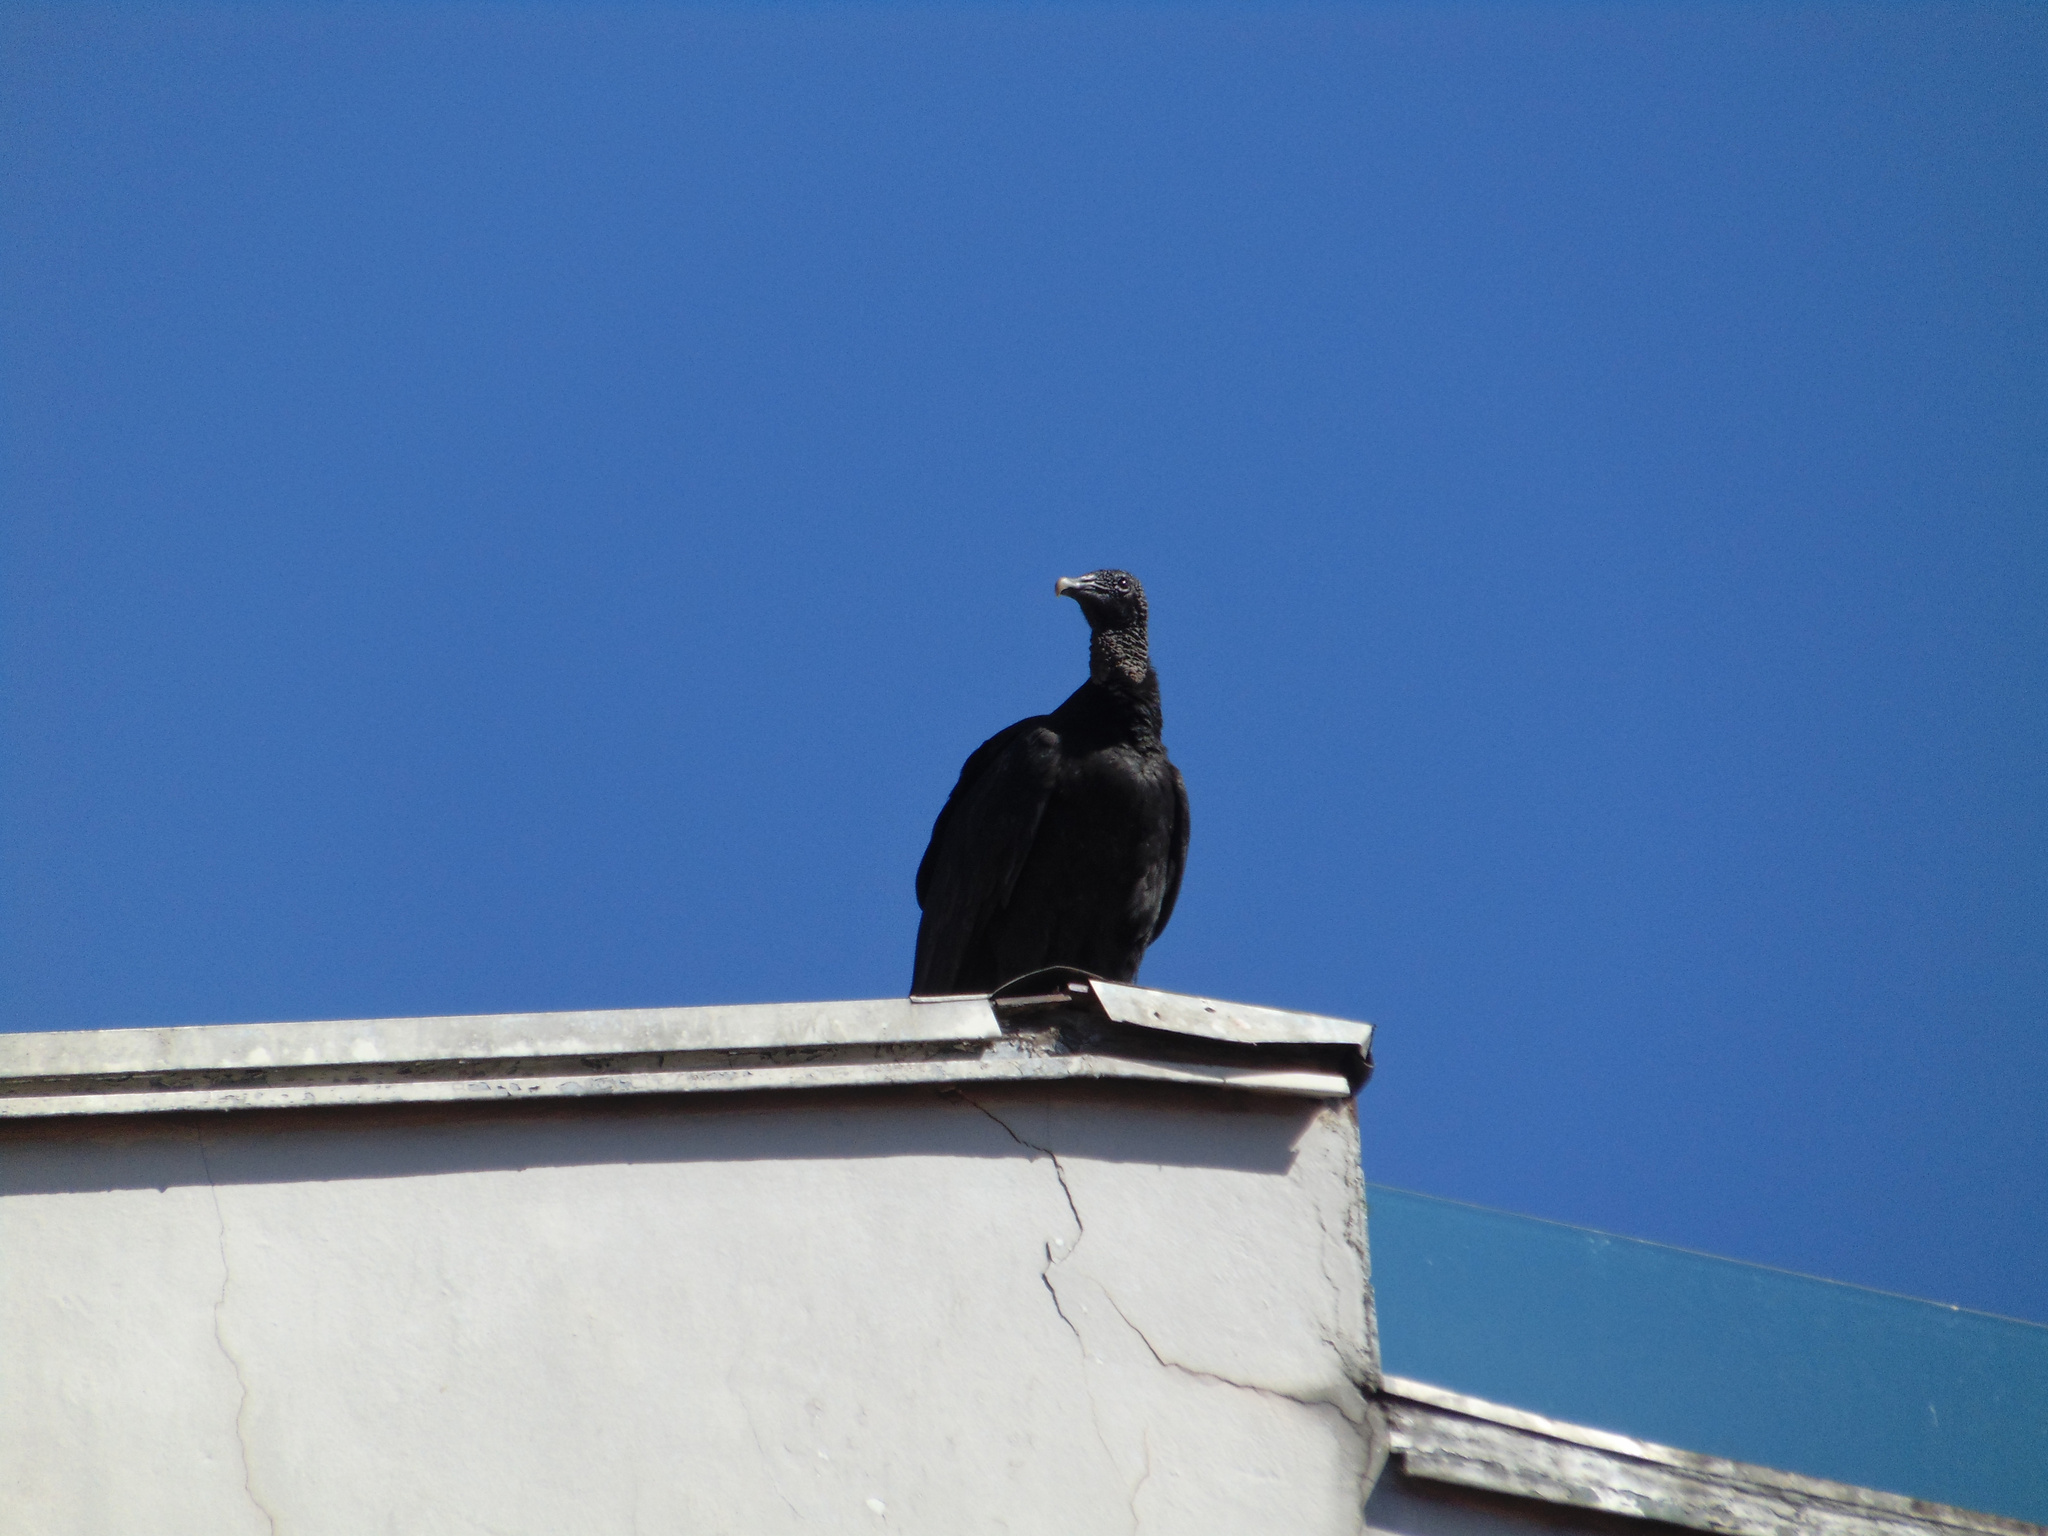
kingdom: Animalia
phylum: Chordata
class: Aves
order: Accipitriformes
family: Cathartidae
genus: Coragyps
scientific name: Coragyps atratus
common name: Black vulture
